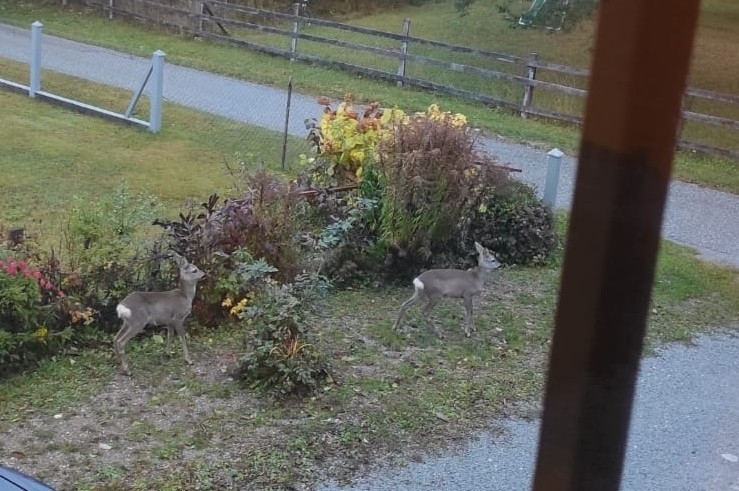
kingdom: Animalia
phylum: Chordata
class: Mammalia
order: Artiodactyla
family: Cervidae
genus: Capreolus
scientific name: Capreolus capreolus
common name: Western roe deer
